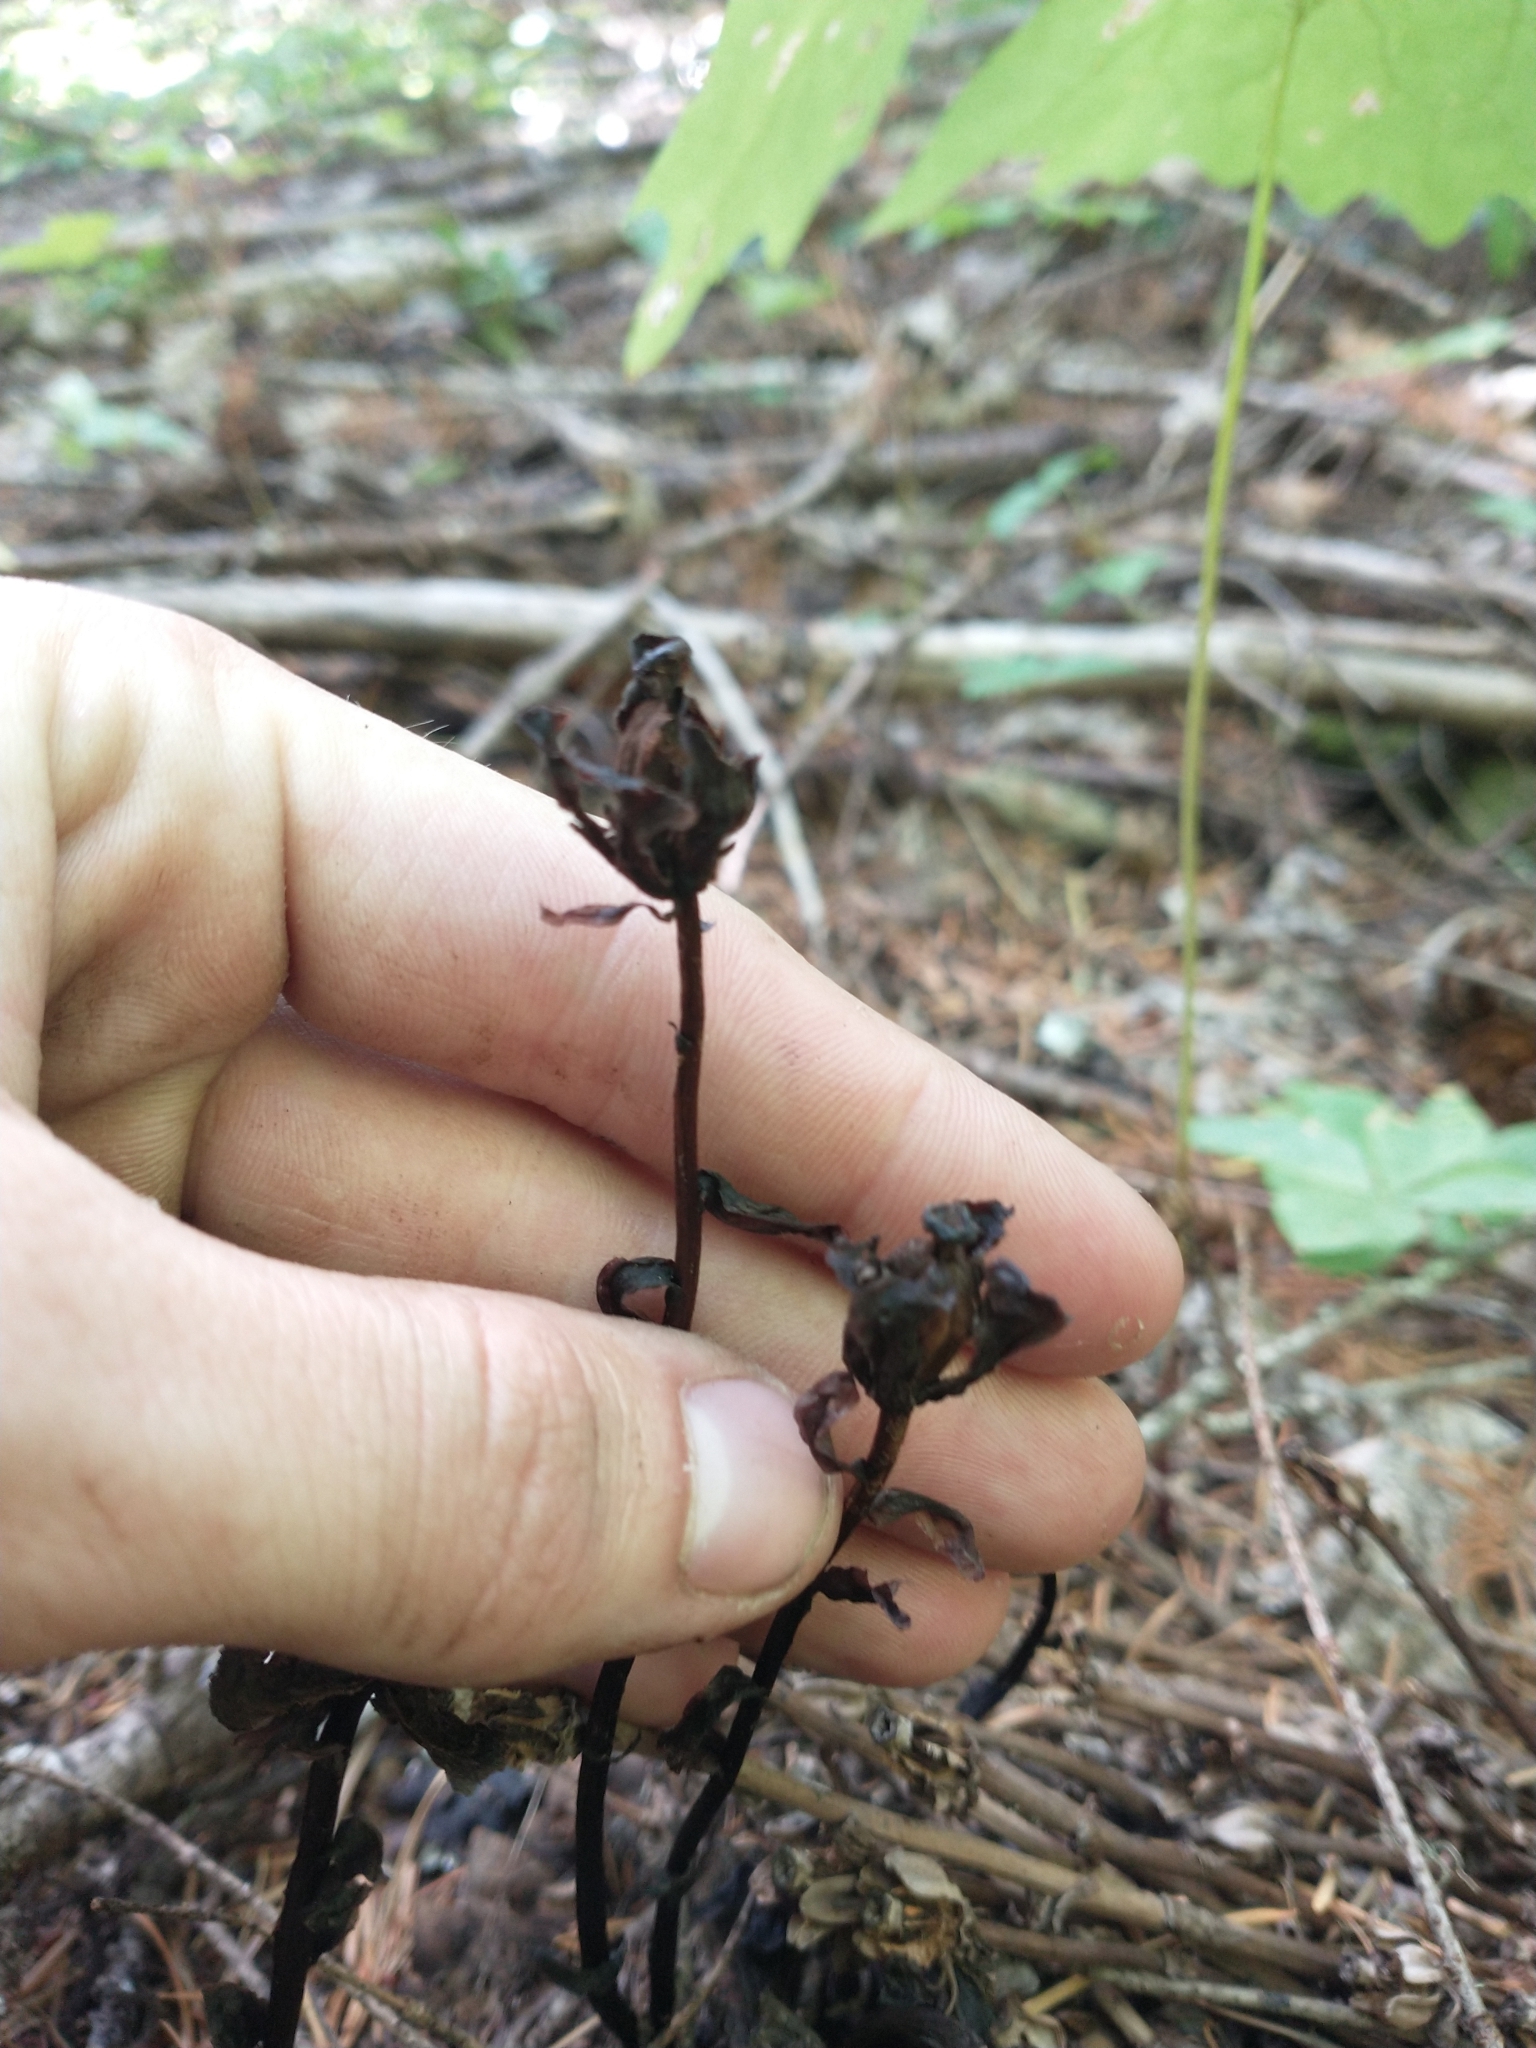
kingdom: Plantae
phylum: Tracheophyta
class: Magnoliopsida
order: Ericales
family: Ericaceae
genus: Monotropa
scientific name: Monotropa uniflora
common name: Convulsion root
